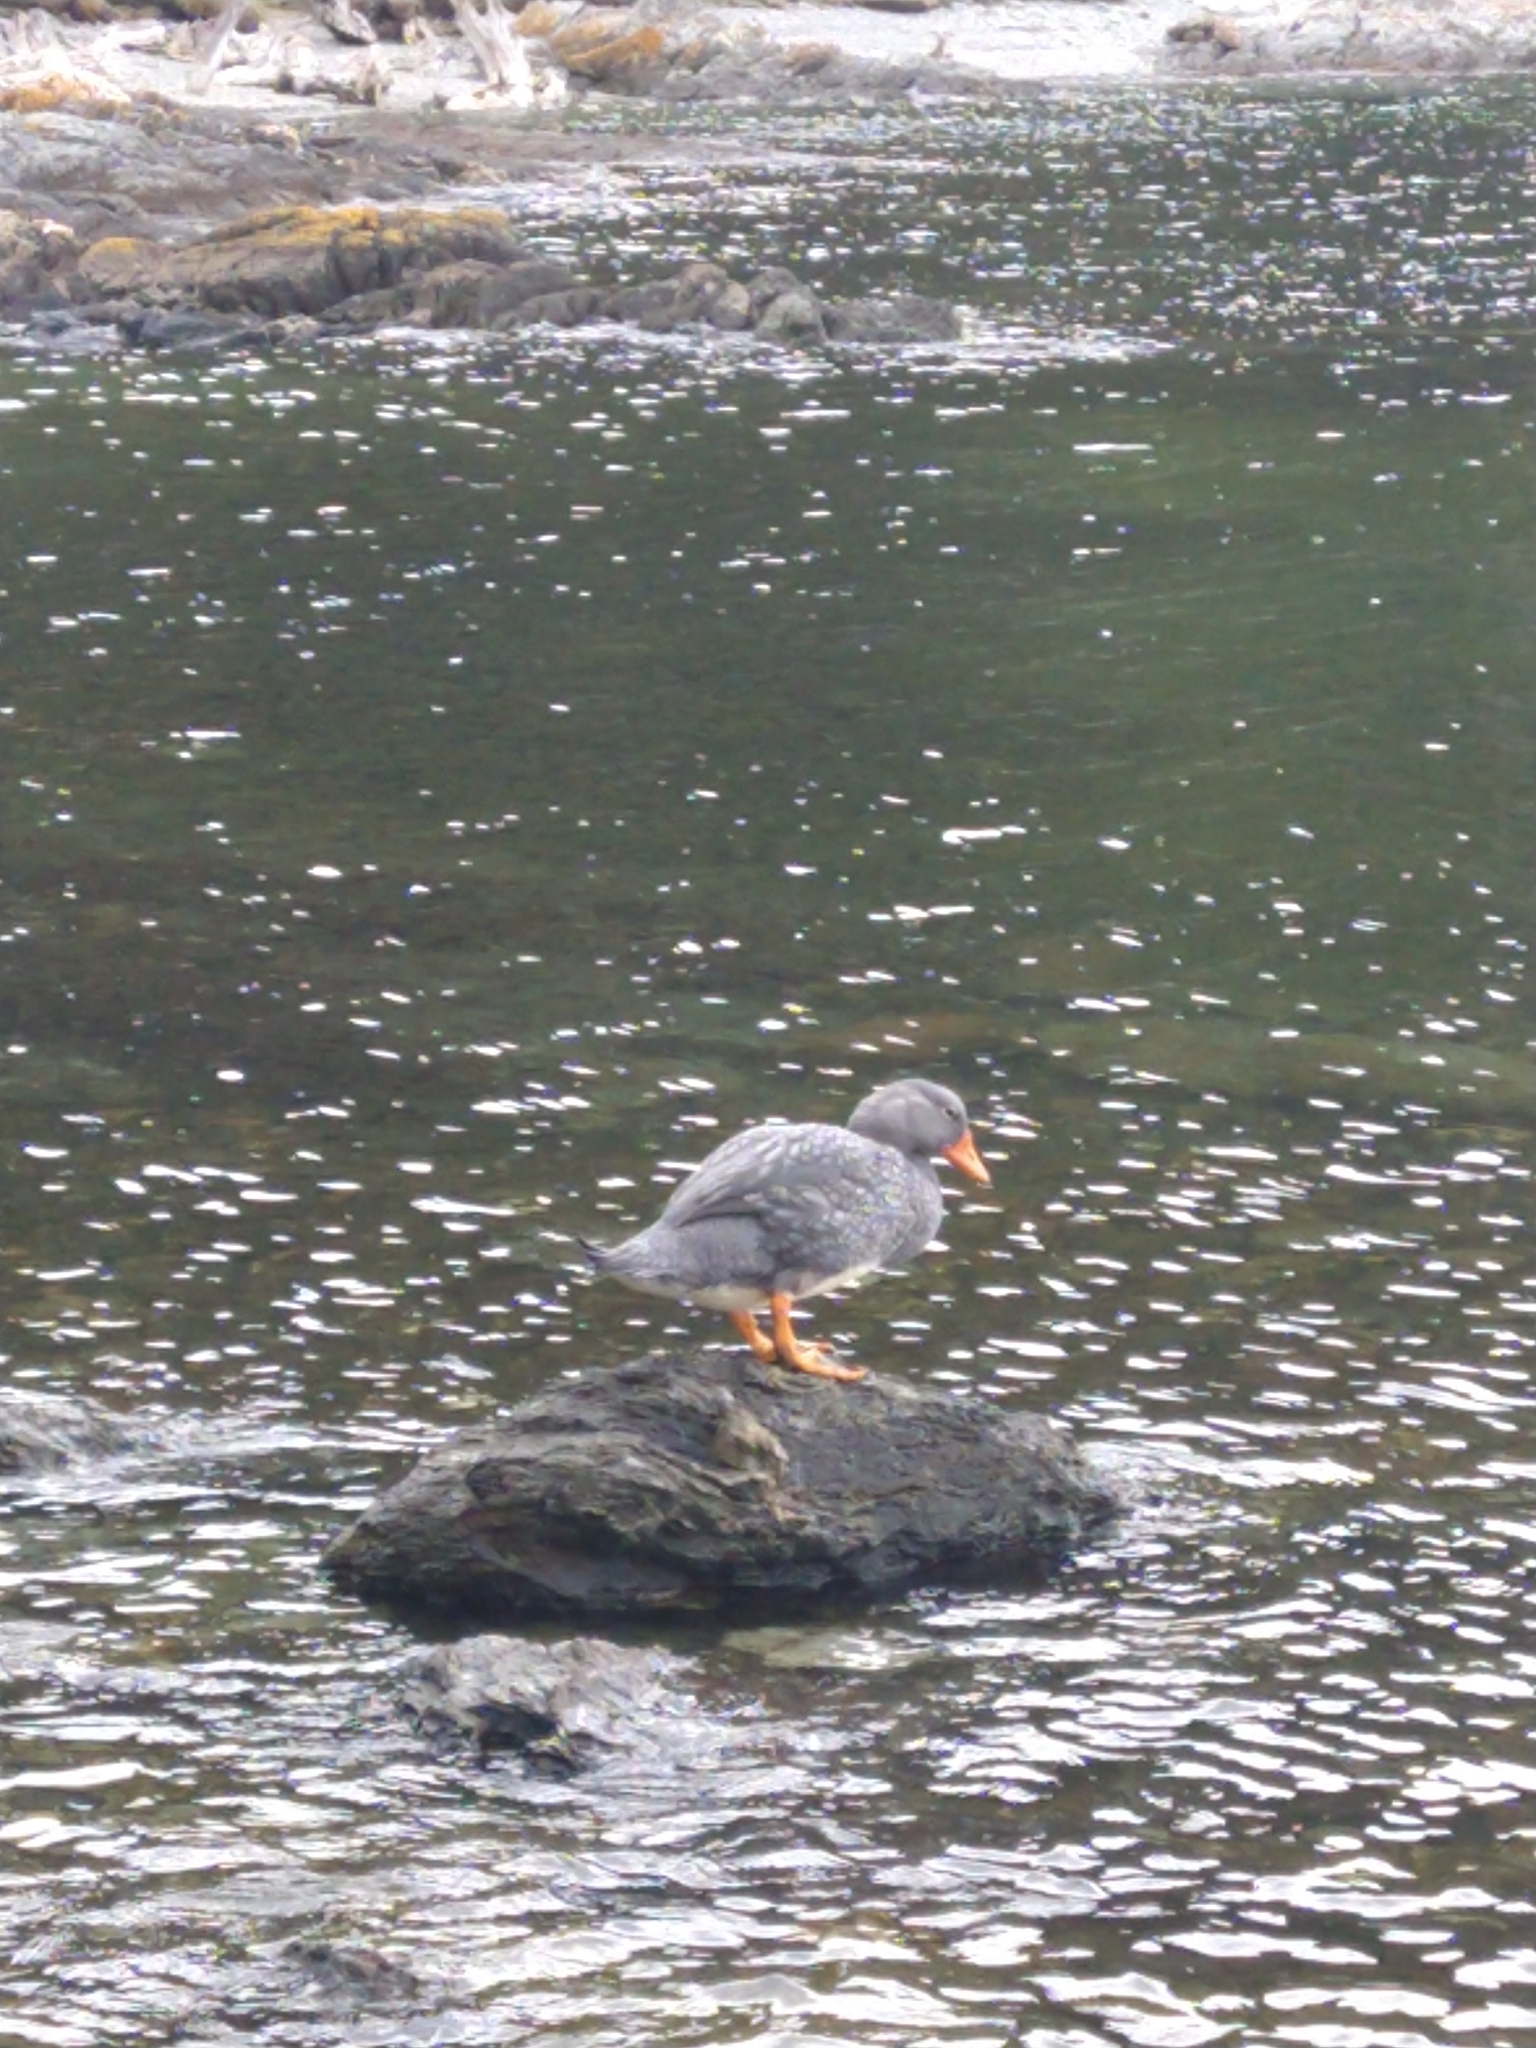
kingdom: Animalia
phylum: Chordata
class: Aves
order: Anseriformes
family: Anatidae
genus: Tachyeres
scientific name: Tachyeres pteneres
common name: Fuegian steamer duck
